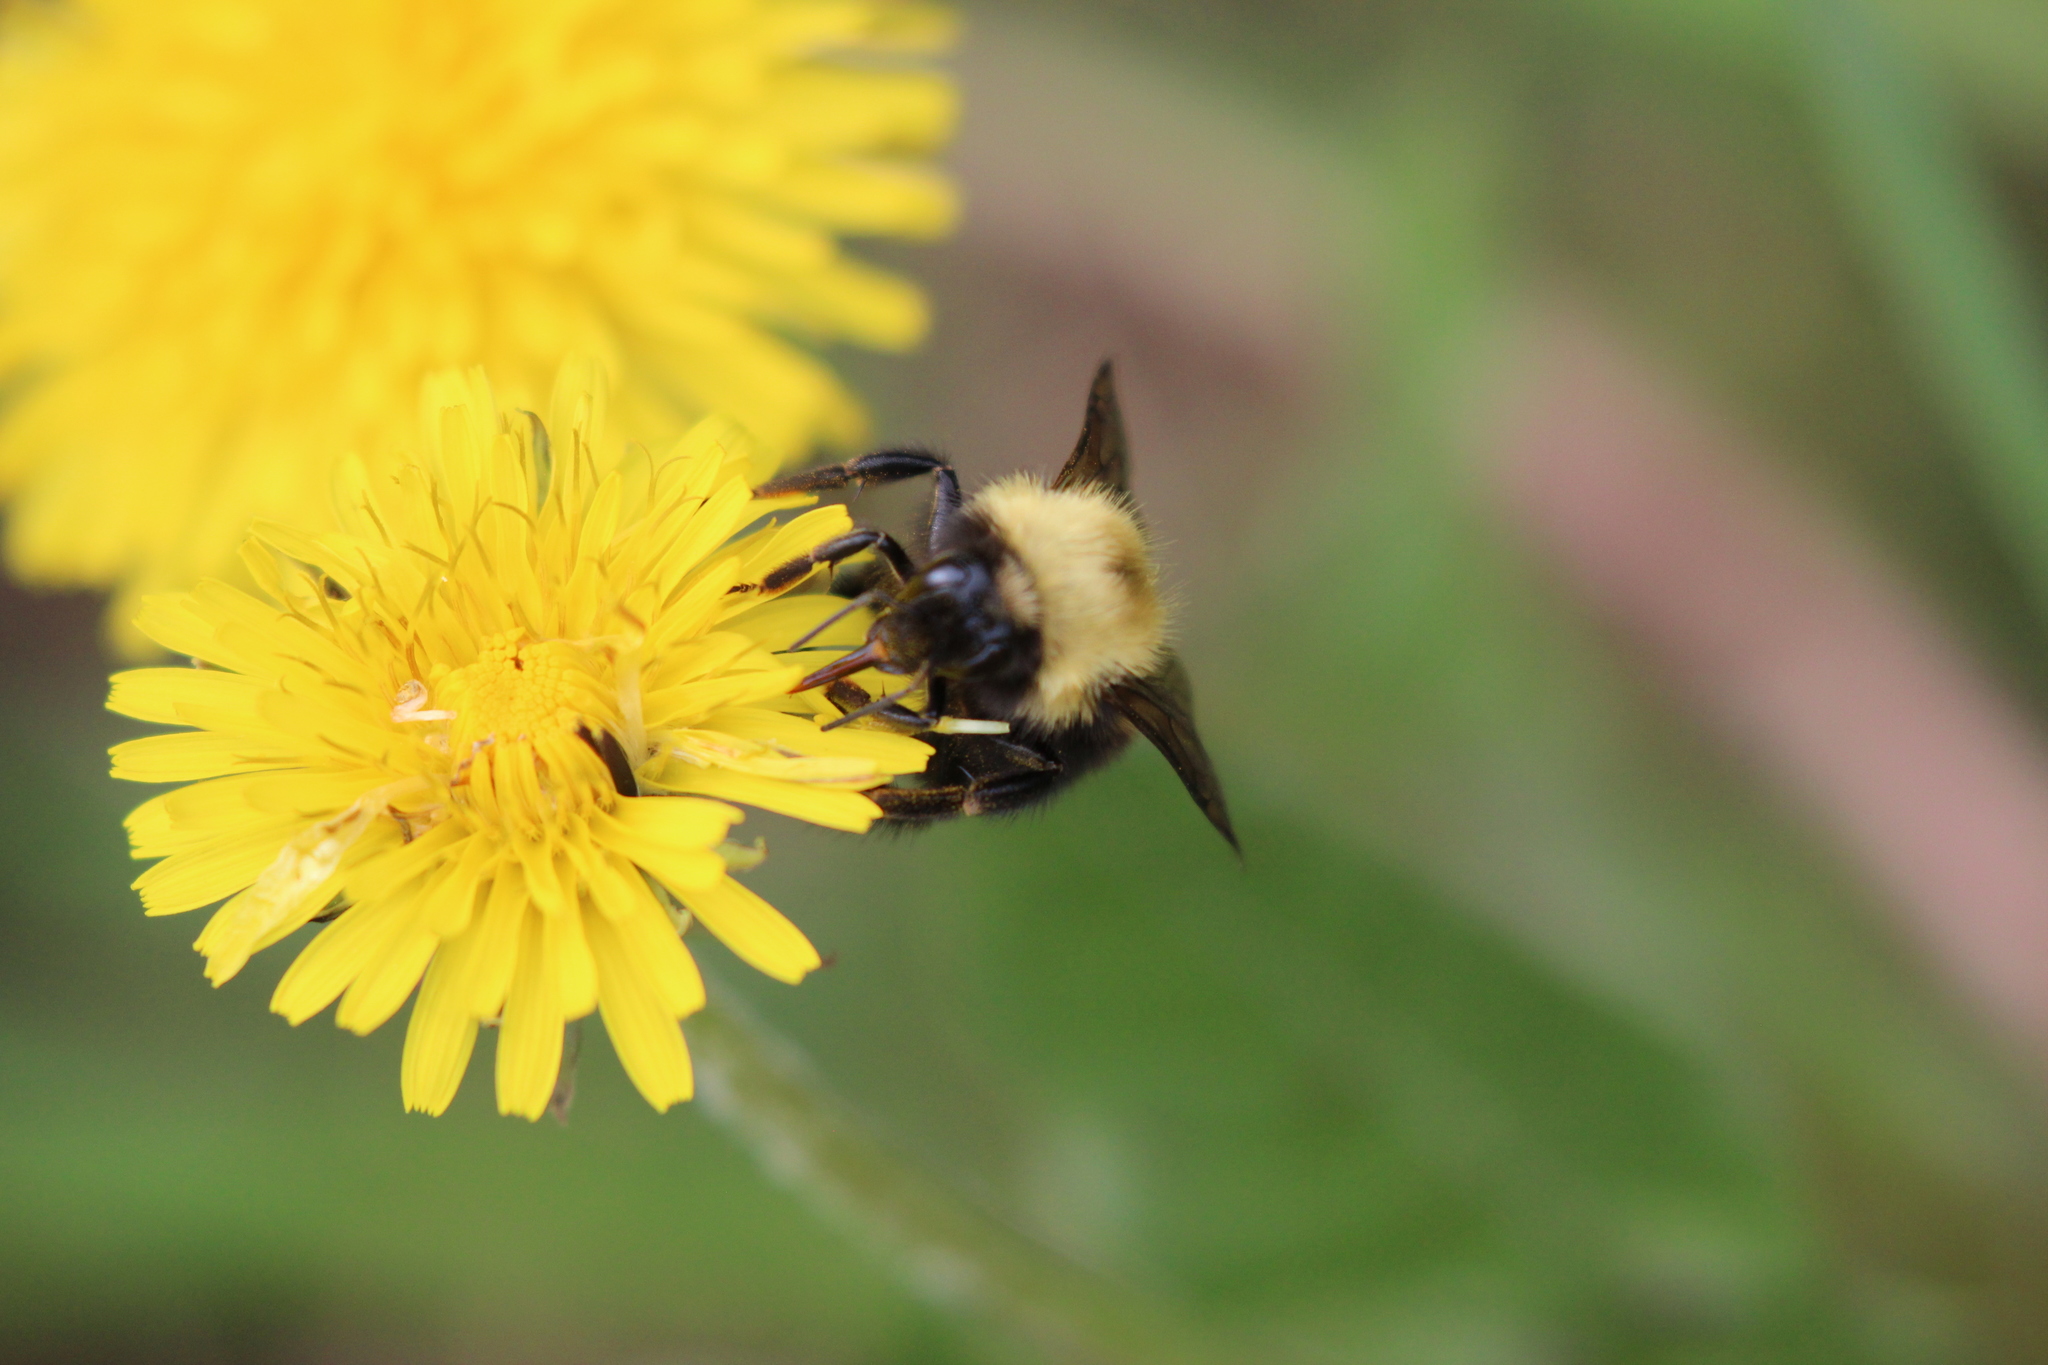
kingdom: Animalia
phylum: Arthropoda
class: Insecta
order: Hymenoptera
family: Apidae
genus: Bombus
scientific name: Bombus perplexus
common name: Confusing bumble bee
